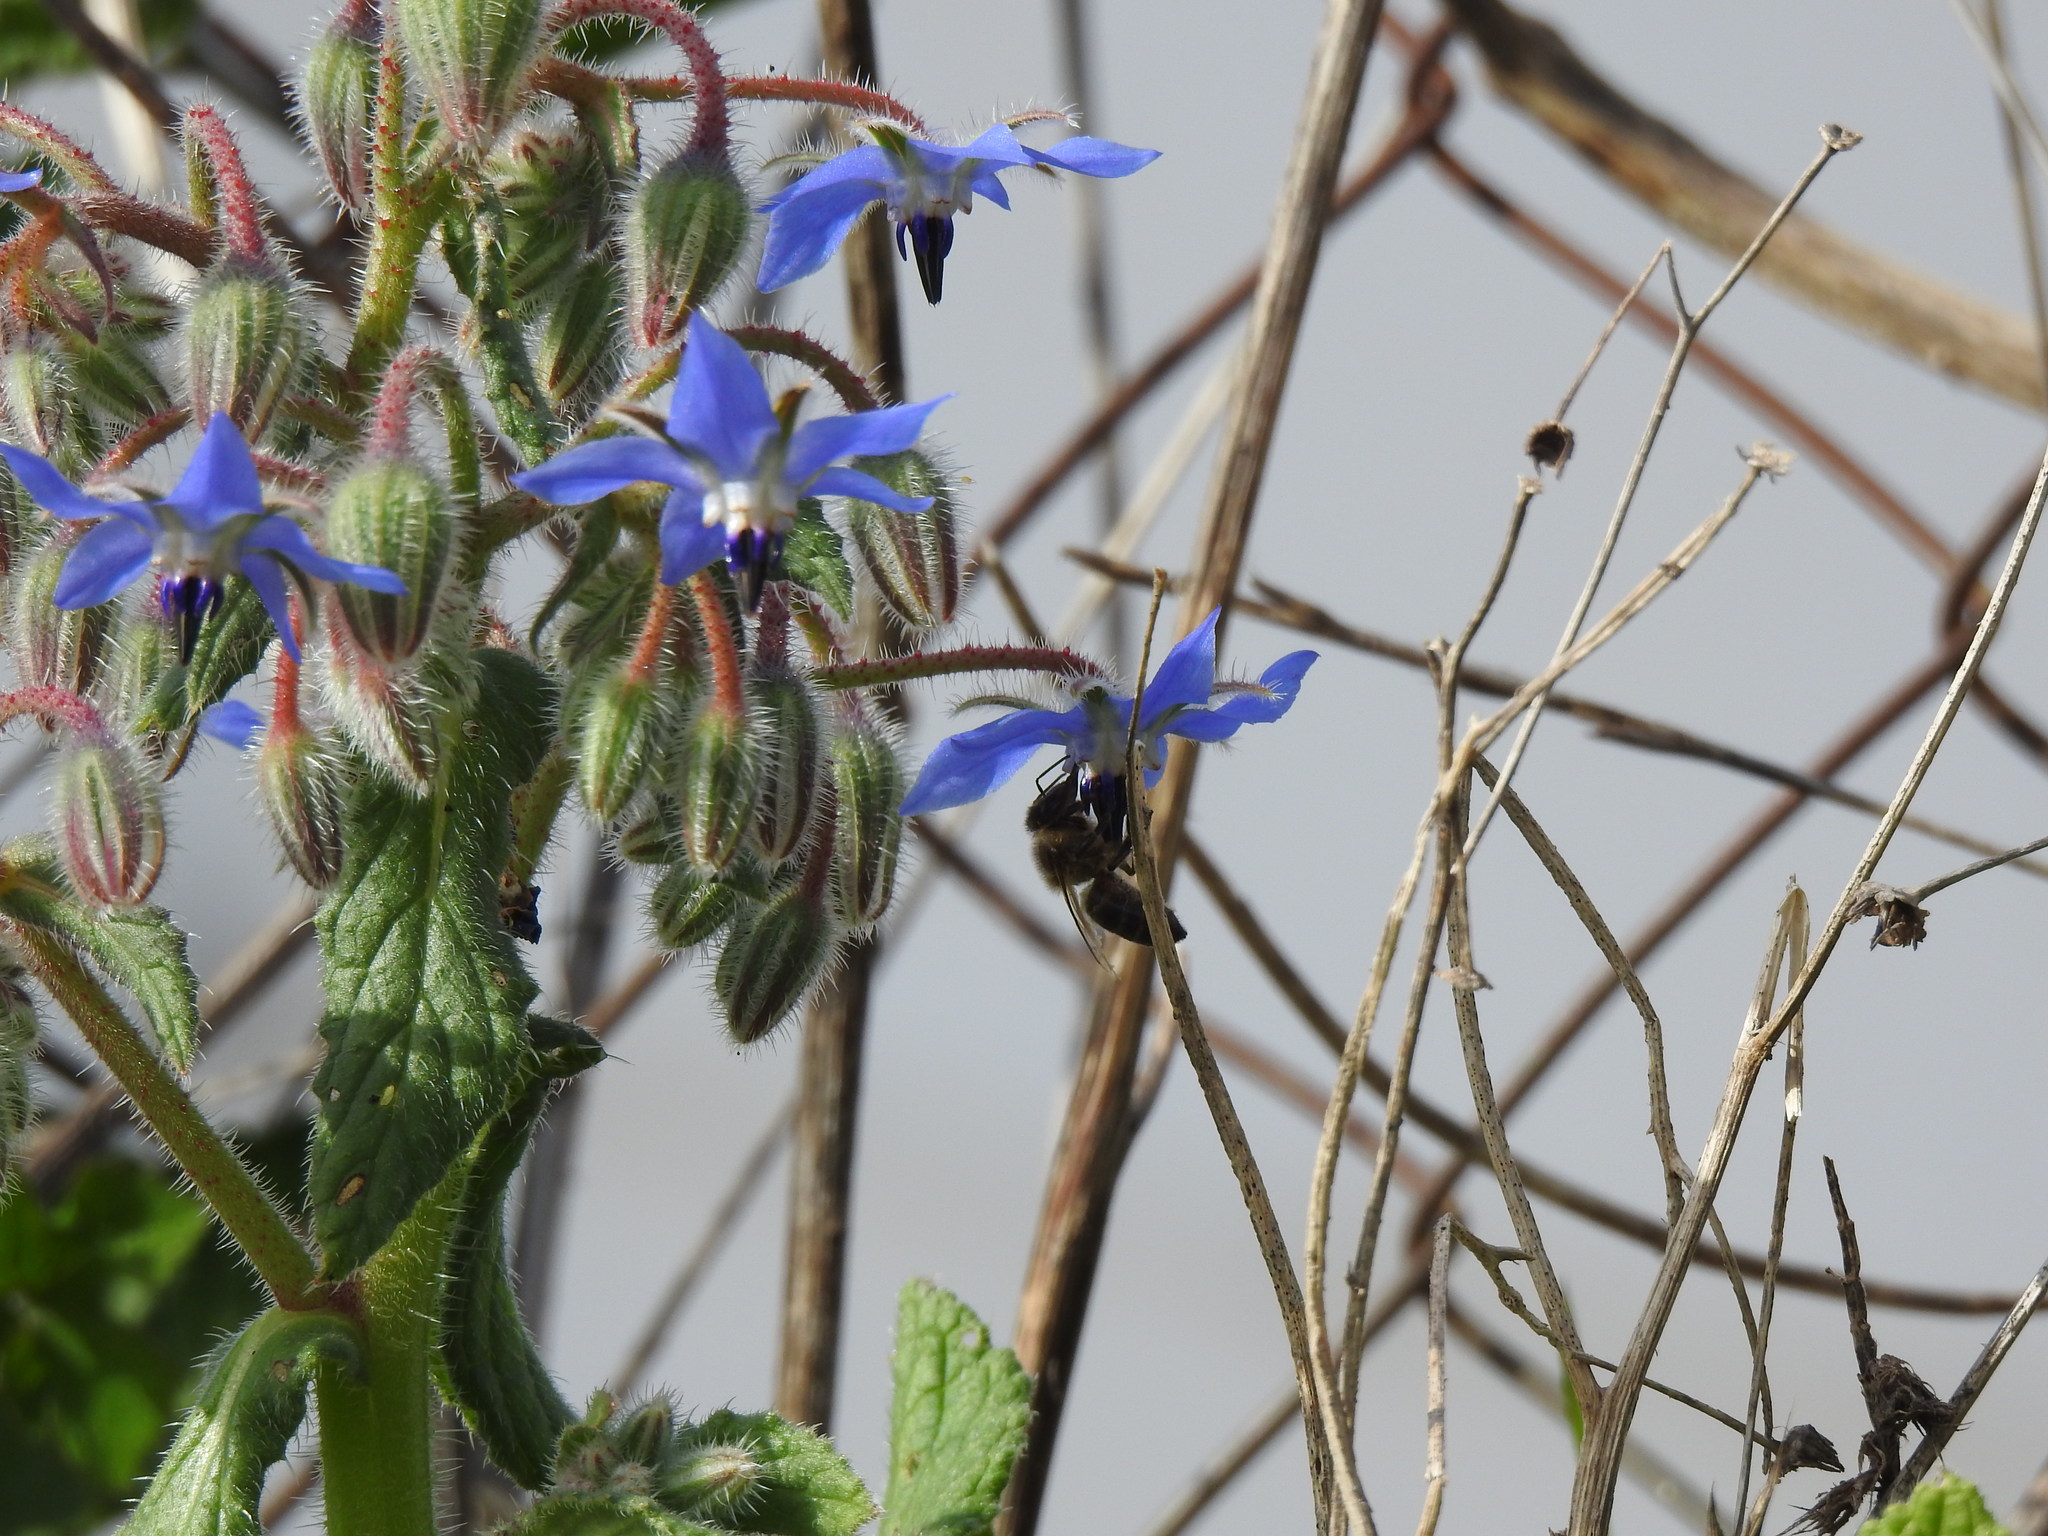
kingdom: Plantae
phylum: Tracheophyta
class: Magnoliopsida
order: Boraginales
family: Boraginaceae
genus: Borago
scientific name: Borago officinalis
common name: Borage
